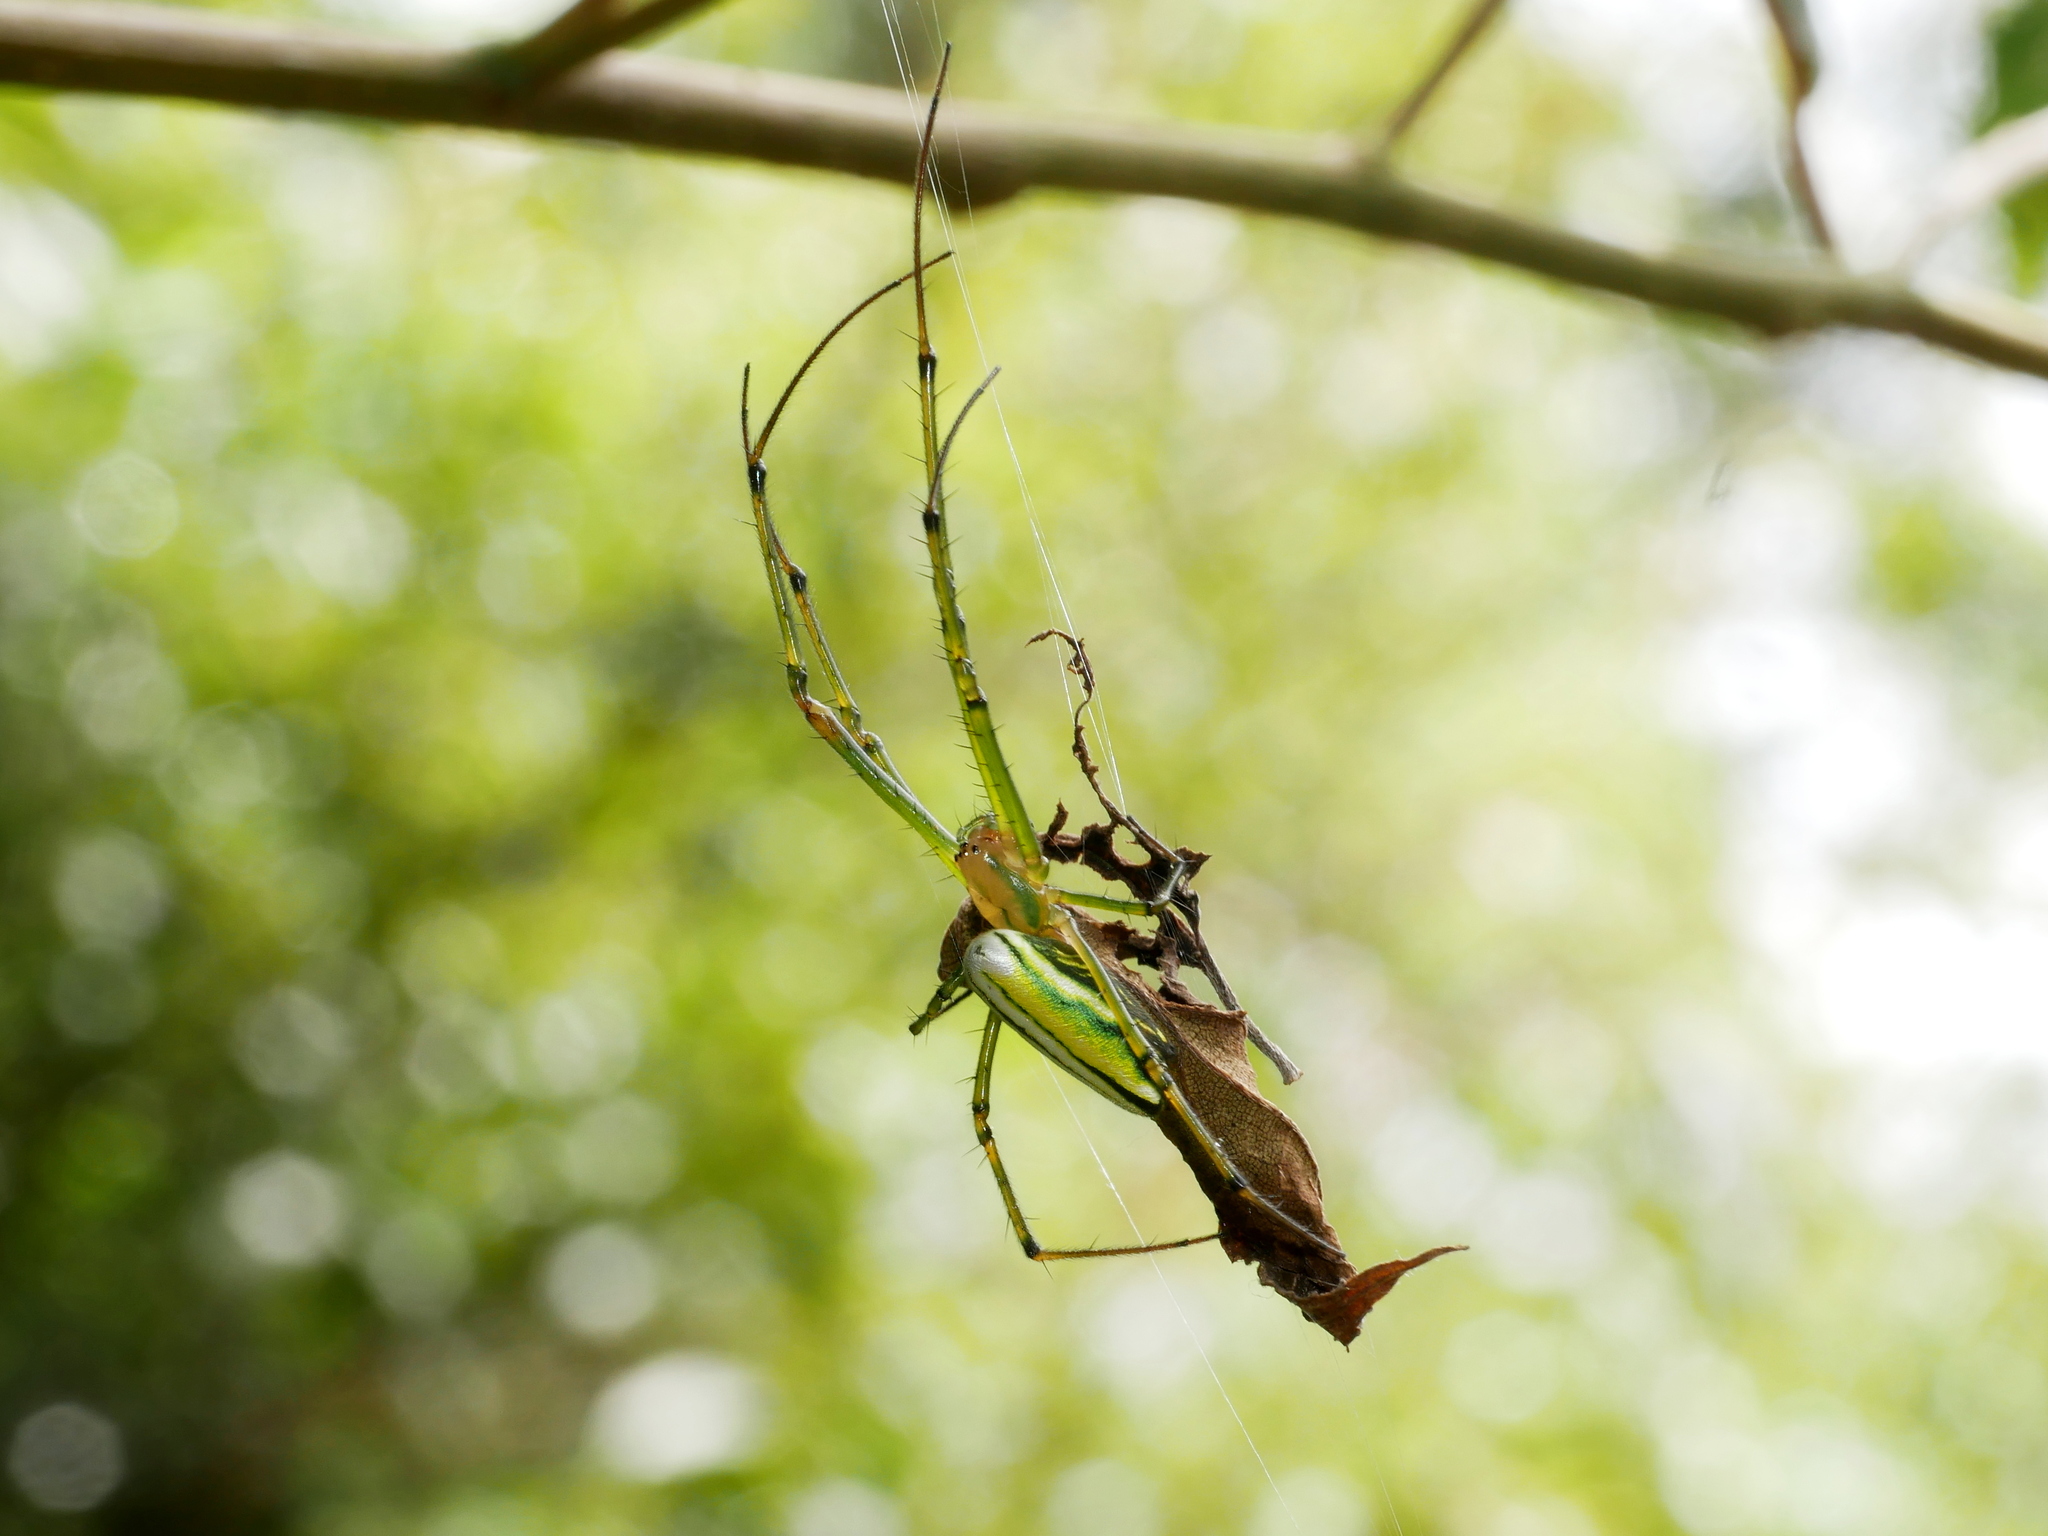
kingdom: Animalia
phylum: Arthropoda
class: Arachnida
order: Araneae
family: Tetragnathidae
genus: Leucauge
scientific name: Leucauge celebesiana
